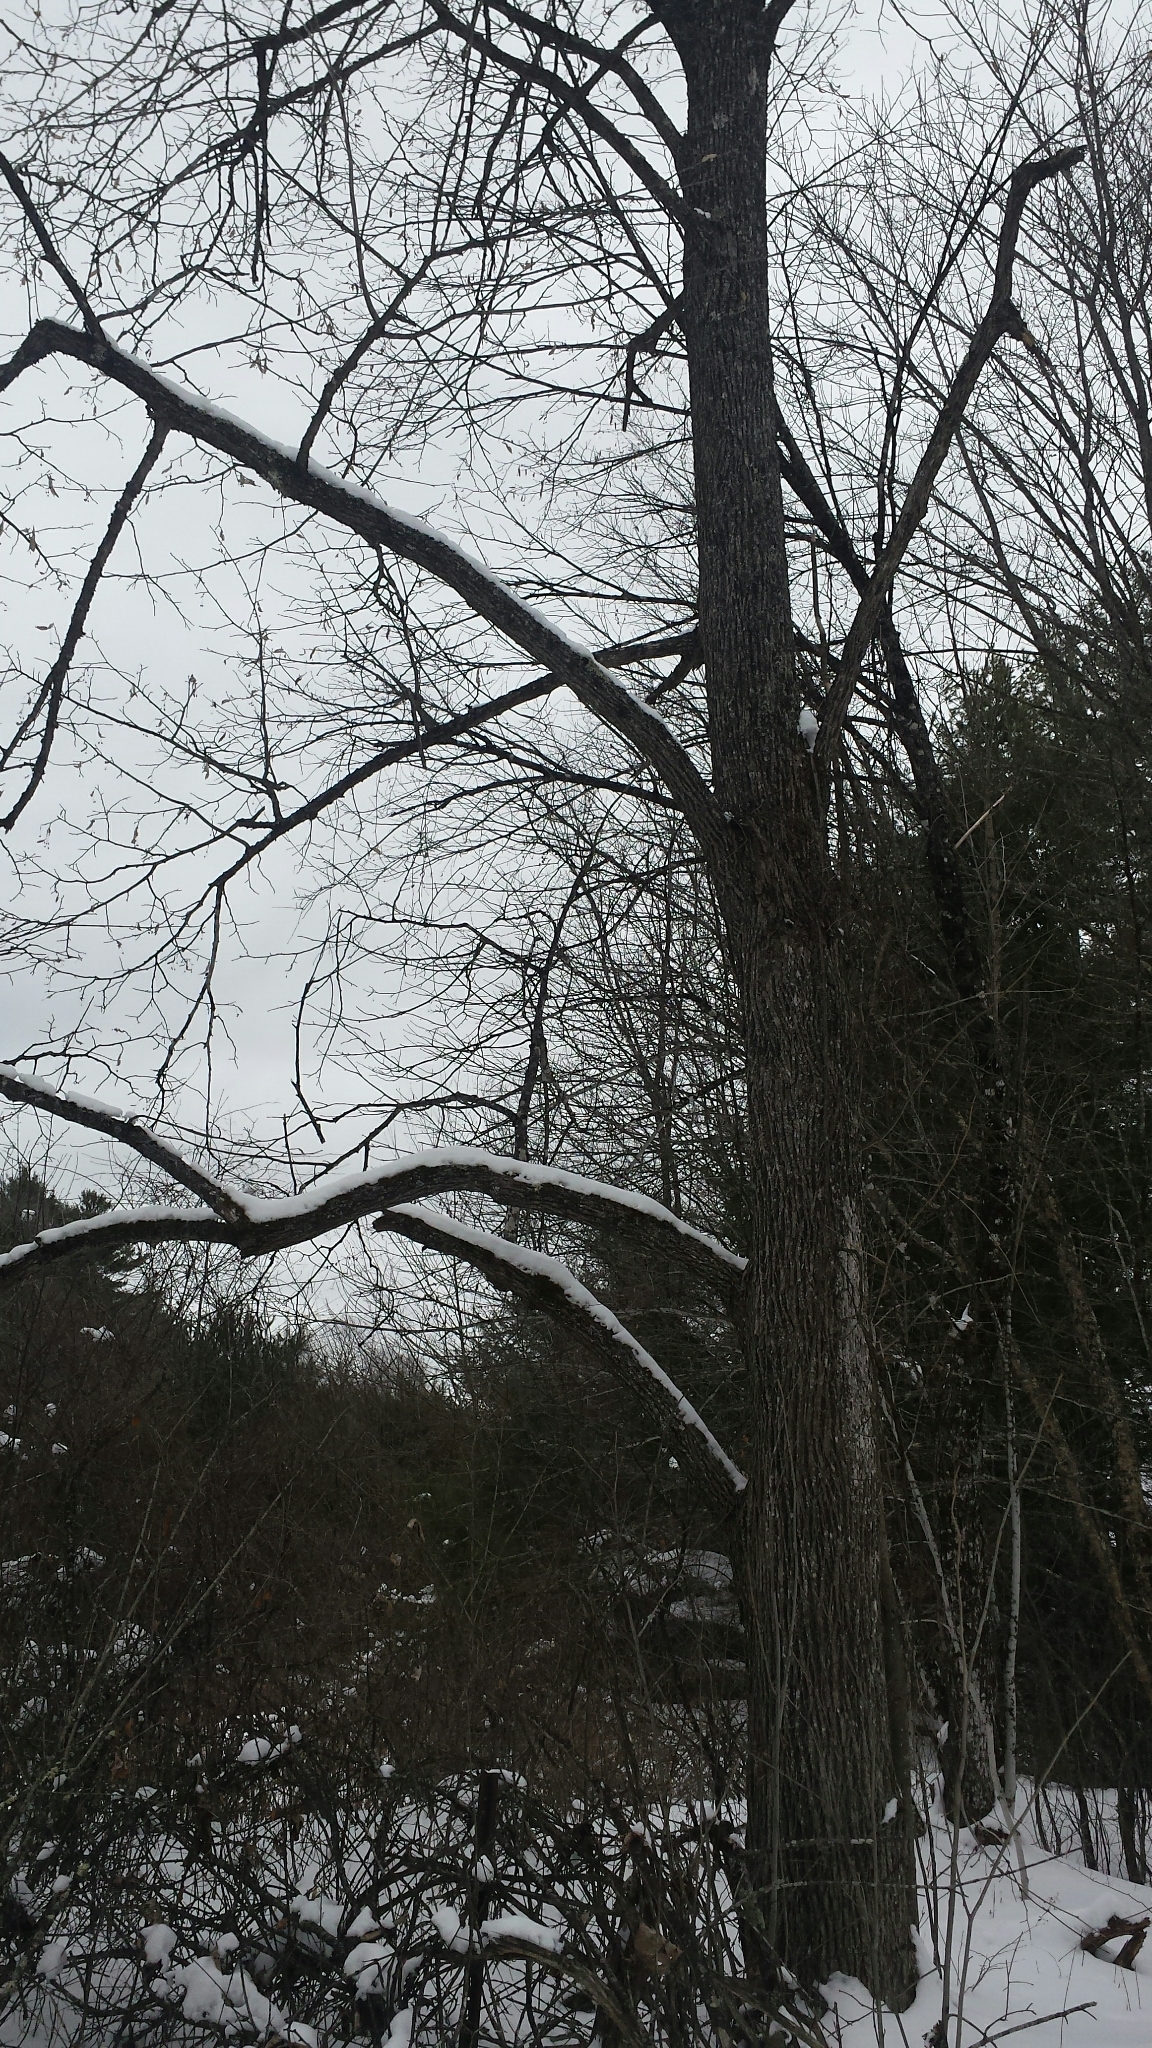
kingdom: Plantae
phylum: Tracheophyta
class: Magnoliopsida
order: Malvales
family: Malvaceae
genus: Tilia
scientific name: Tilia americana
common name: Basswood
